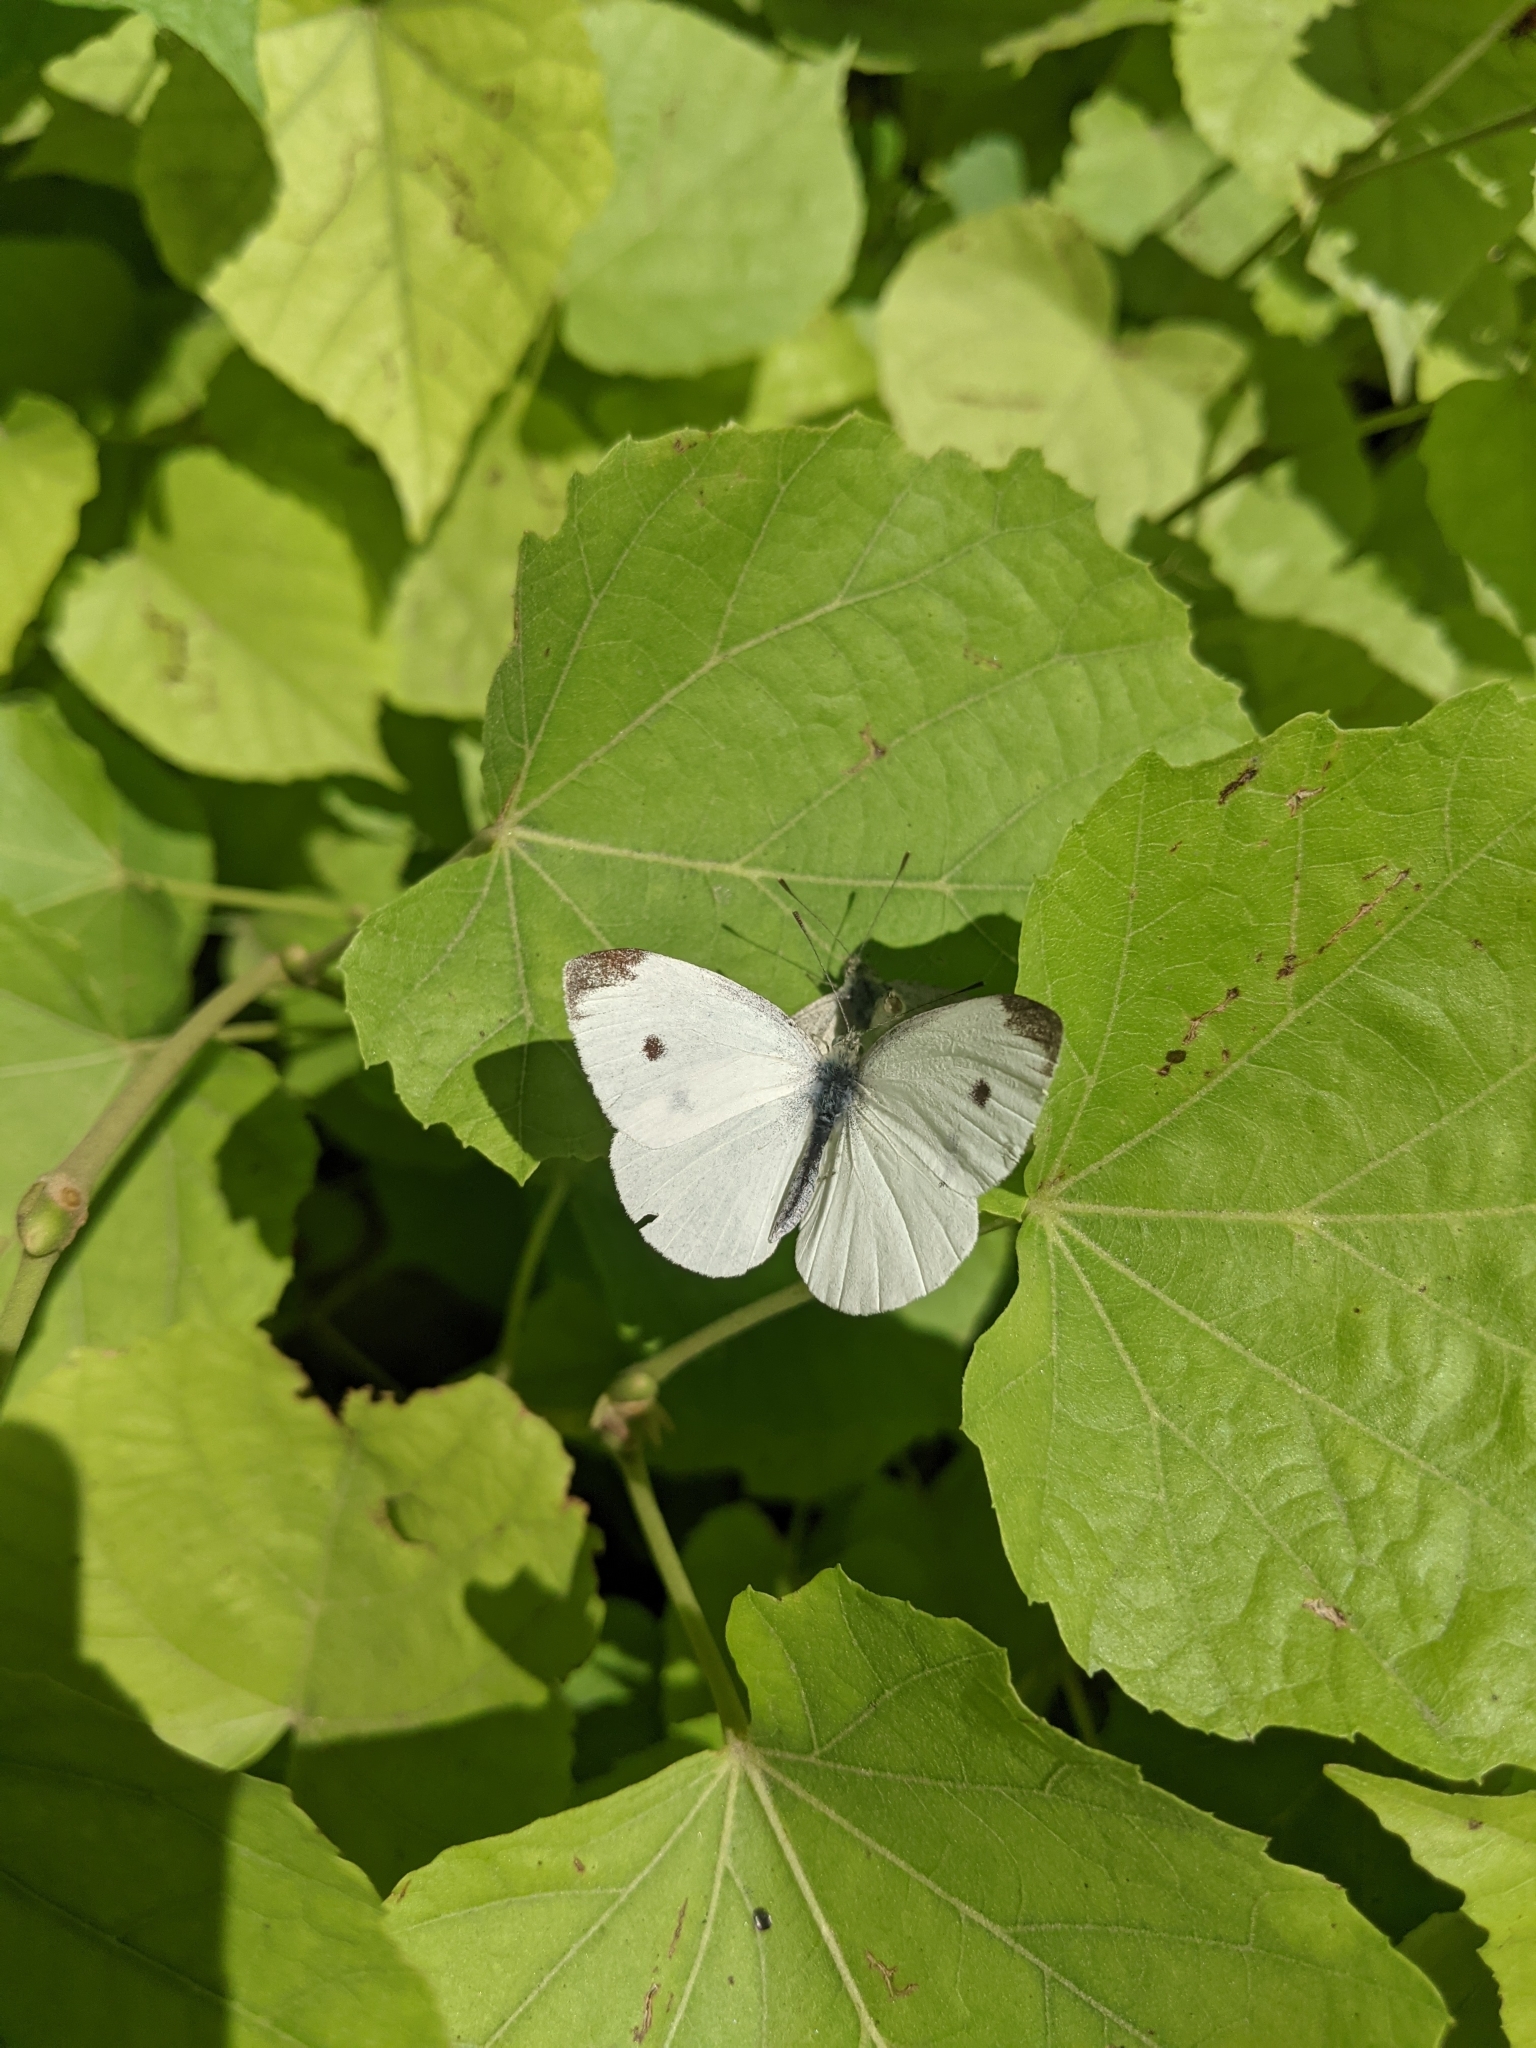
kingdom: Animalia
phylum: Arthropoda
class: Insecta
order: Lepidoptera
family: Pieridae
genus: Pieris
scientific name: Pieris rapae
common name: Small white
